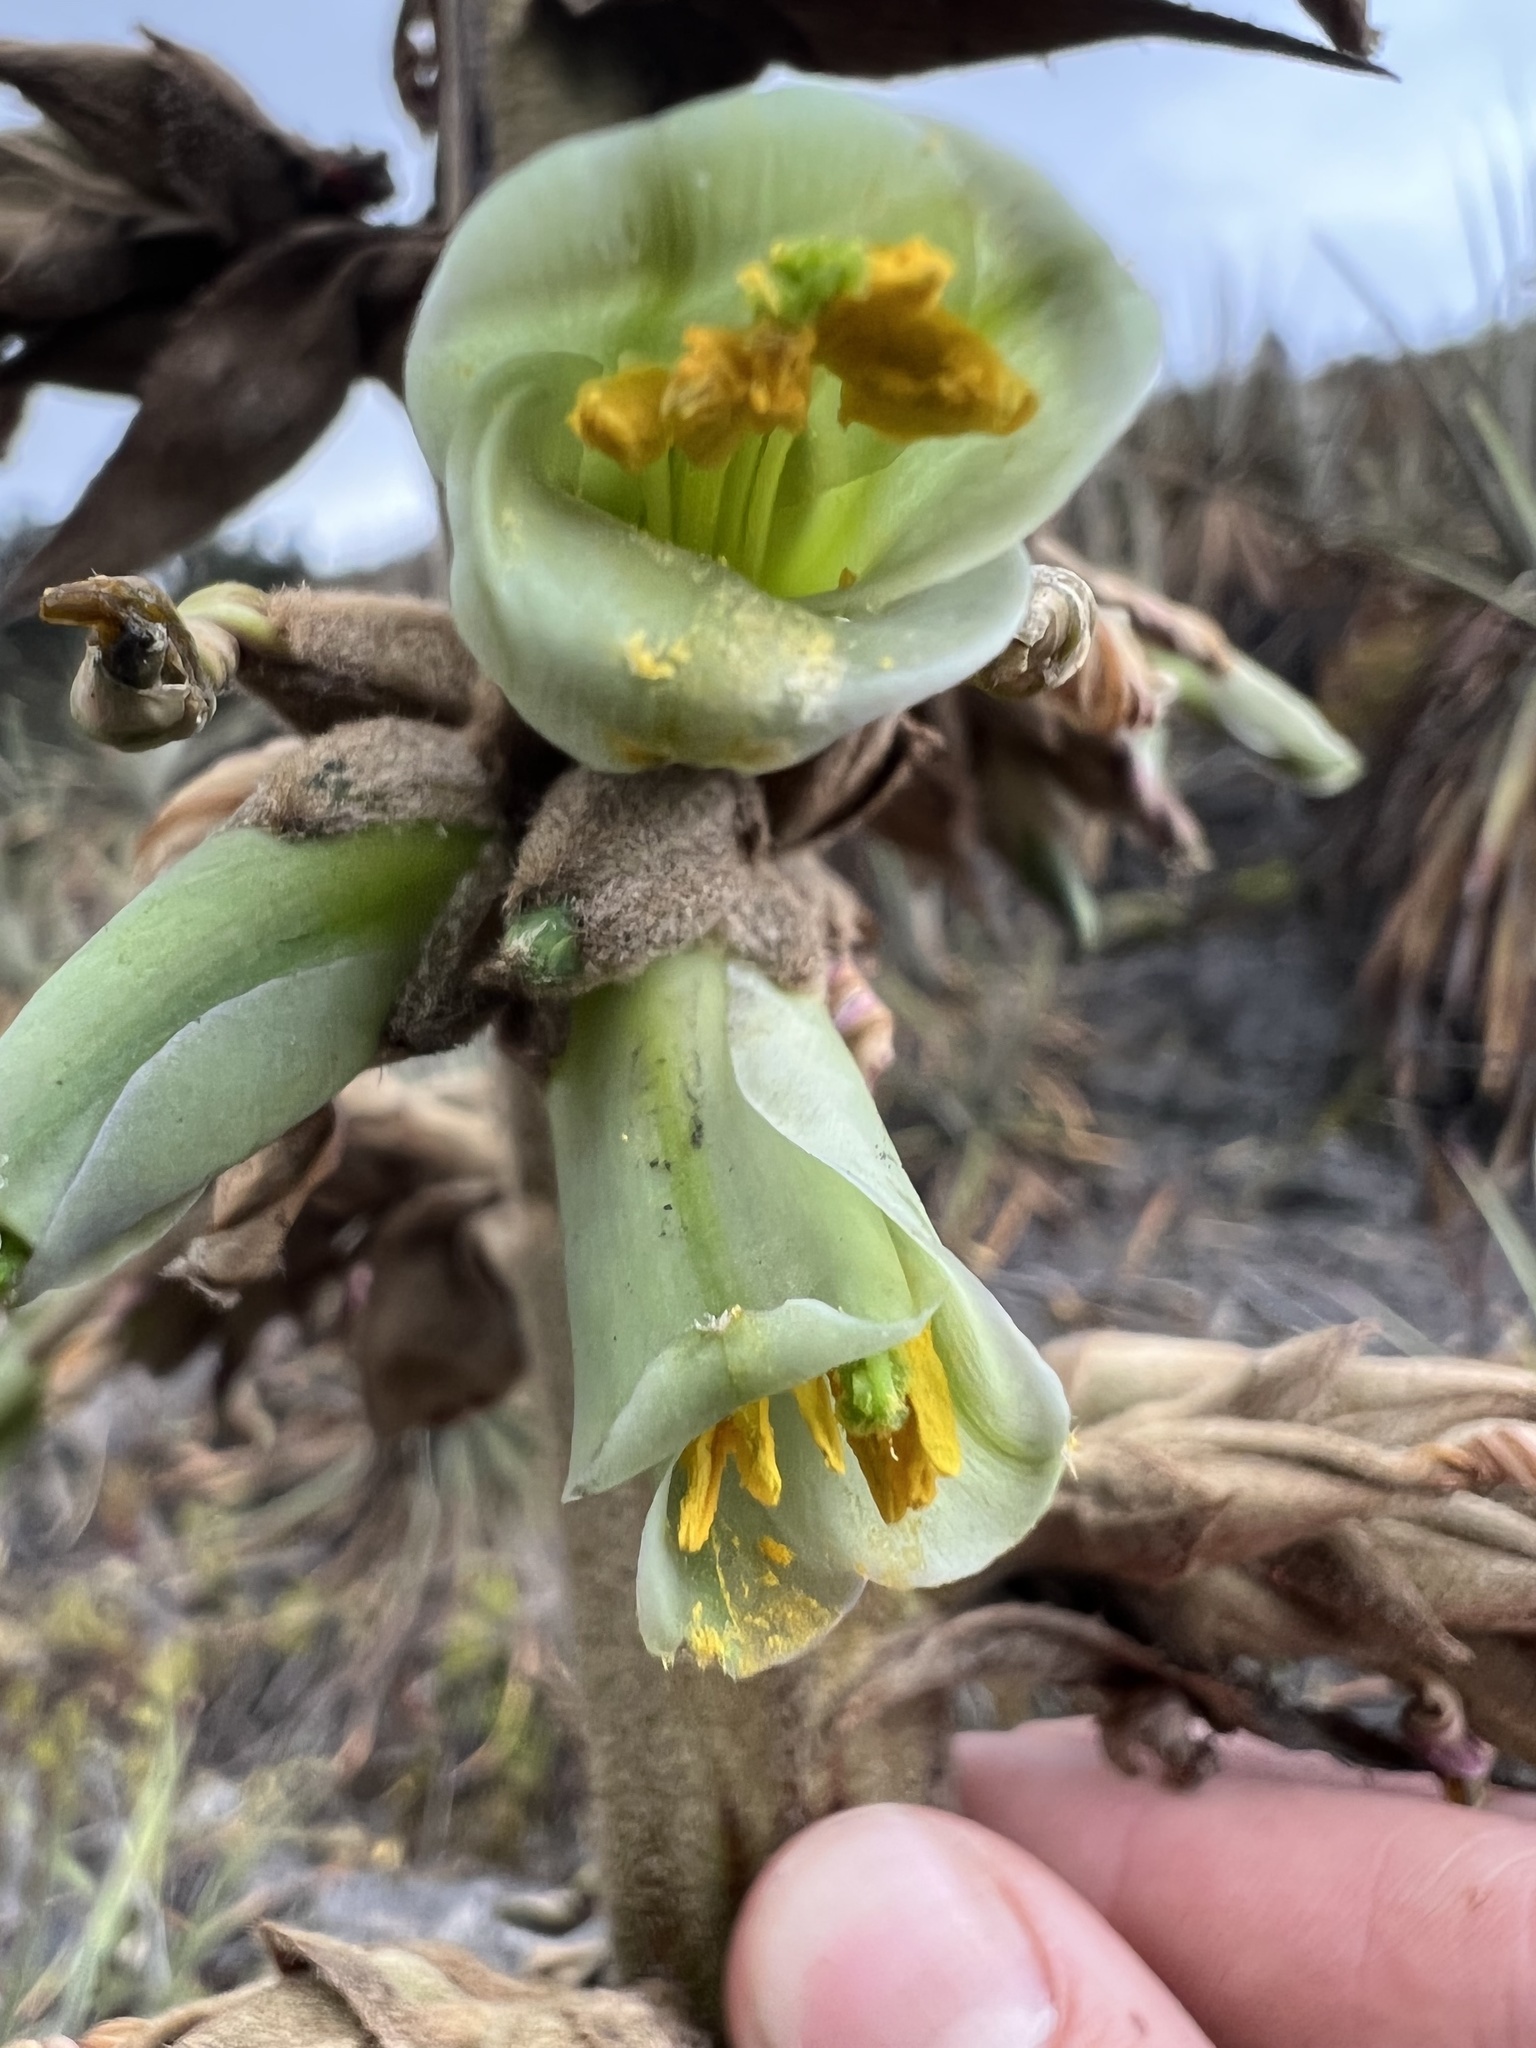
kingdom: Plantae
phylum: Tracheophyta
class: Liliopsida
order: Poales
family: Bromeliaceae
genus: Puya
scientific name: Puya bicolor
